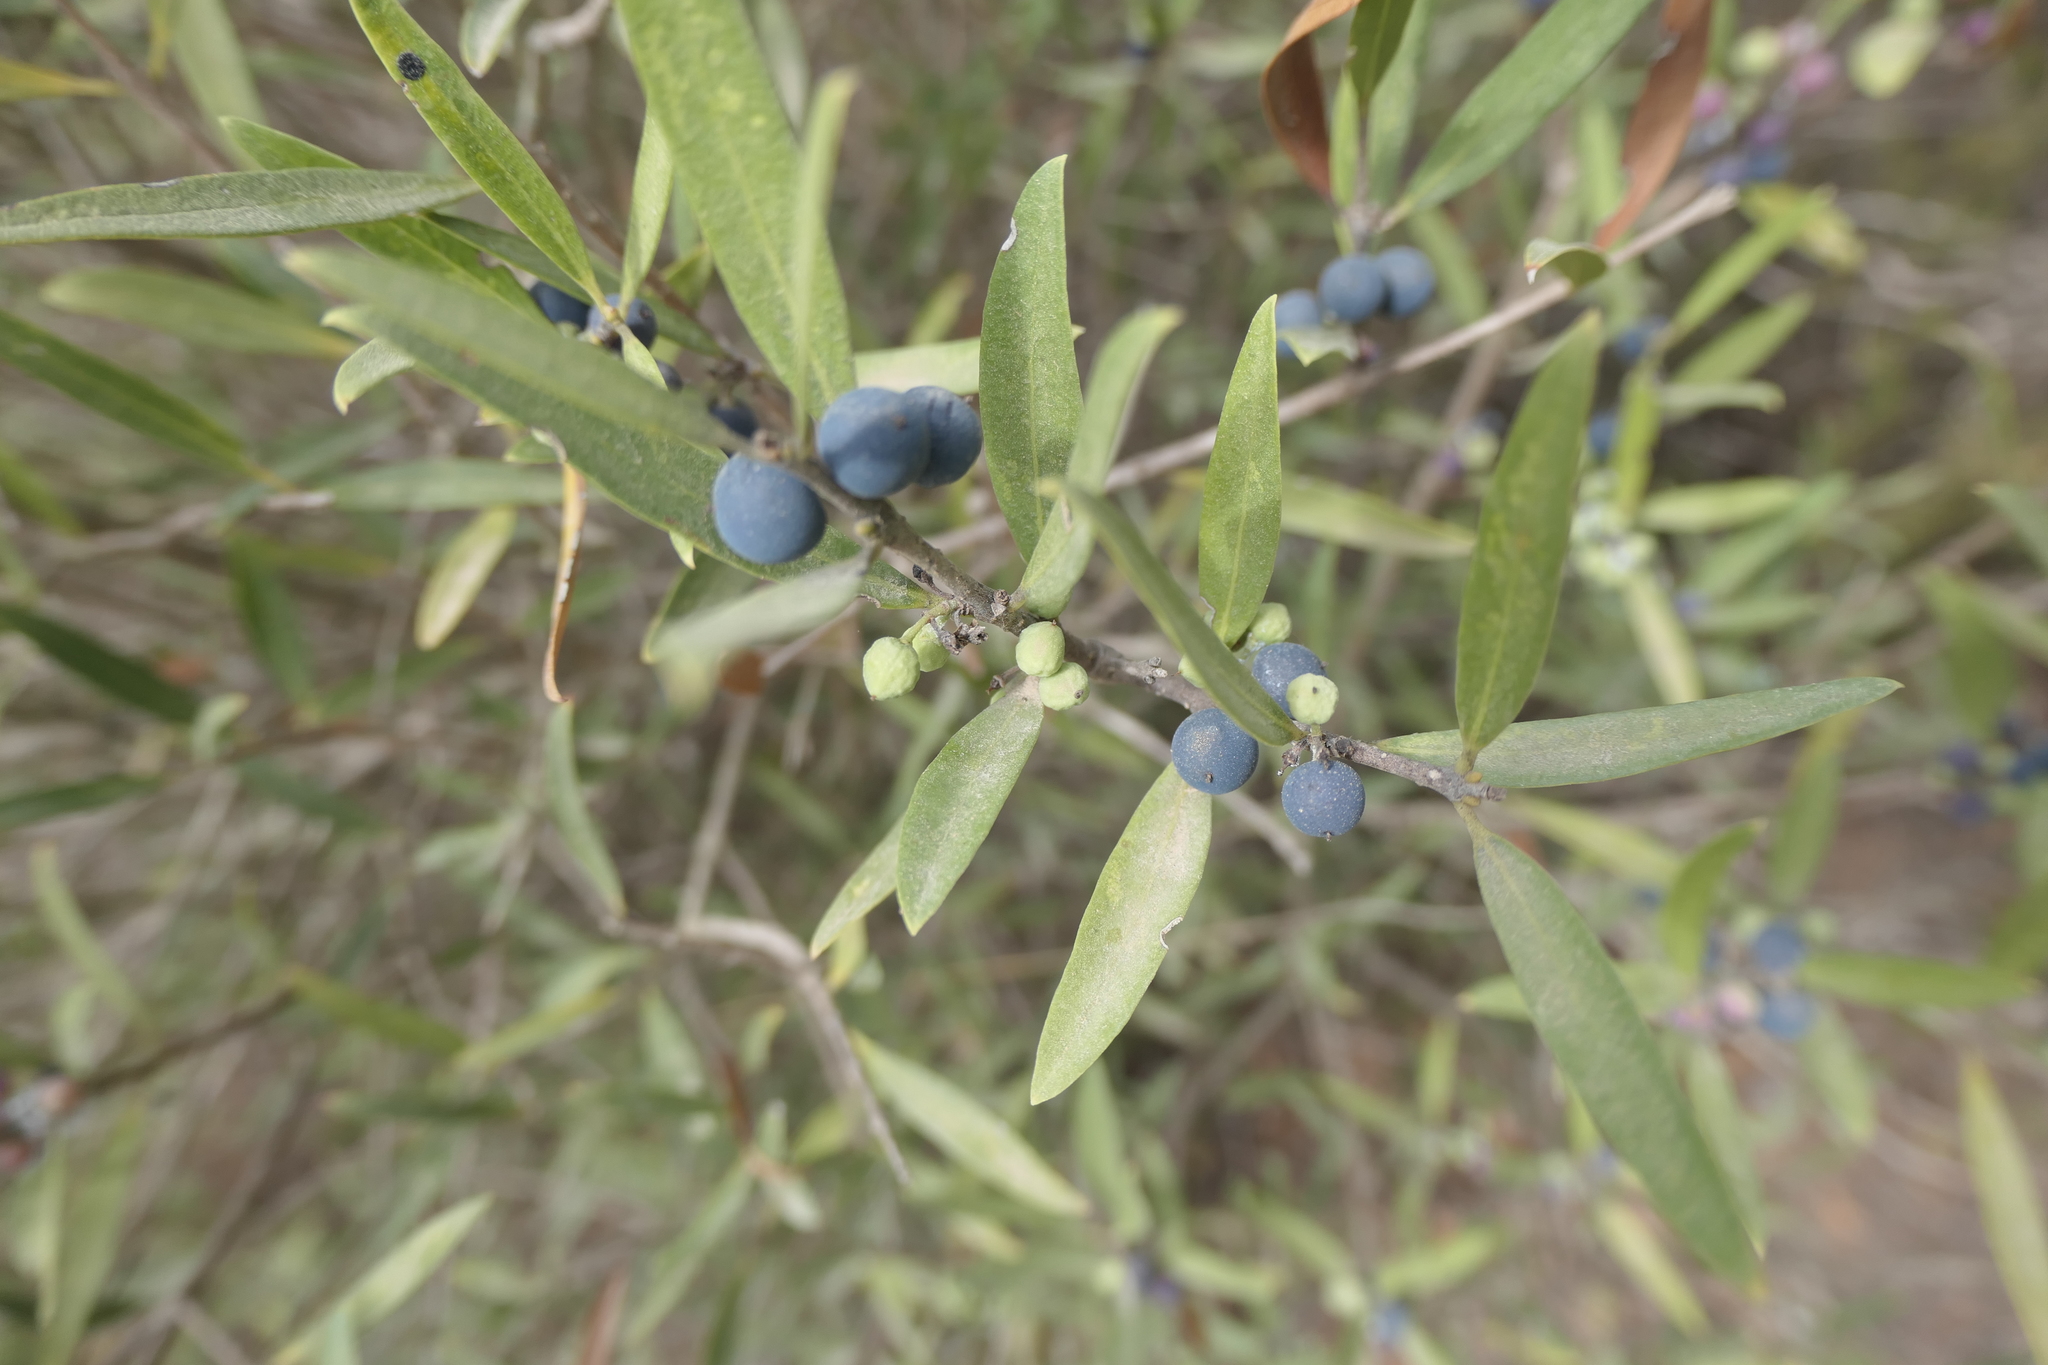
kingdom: Plantae
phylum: Tracheophyta
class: Magnoliopsida
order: Lamiales
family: Oleaceae
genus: Phillyrea
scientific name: Phillyrea angustifolia
